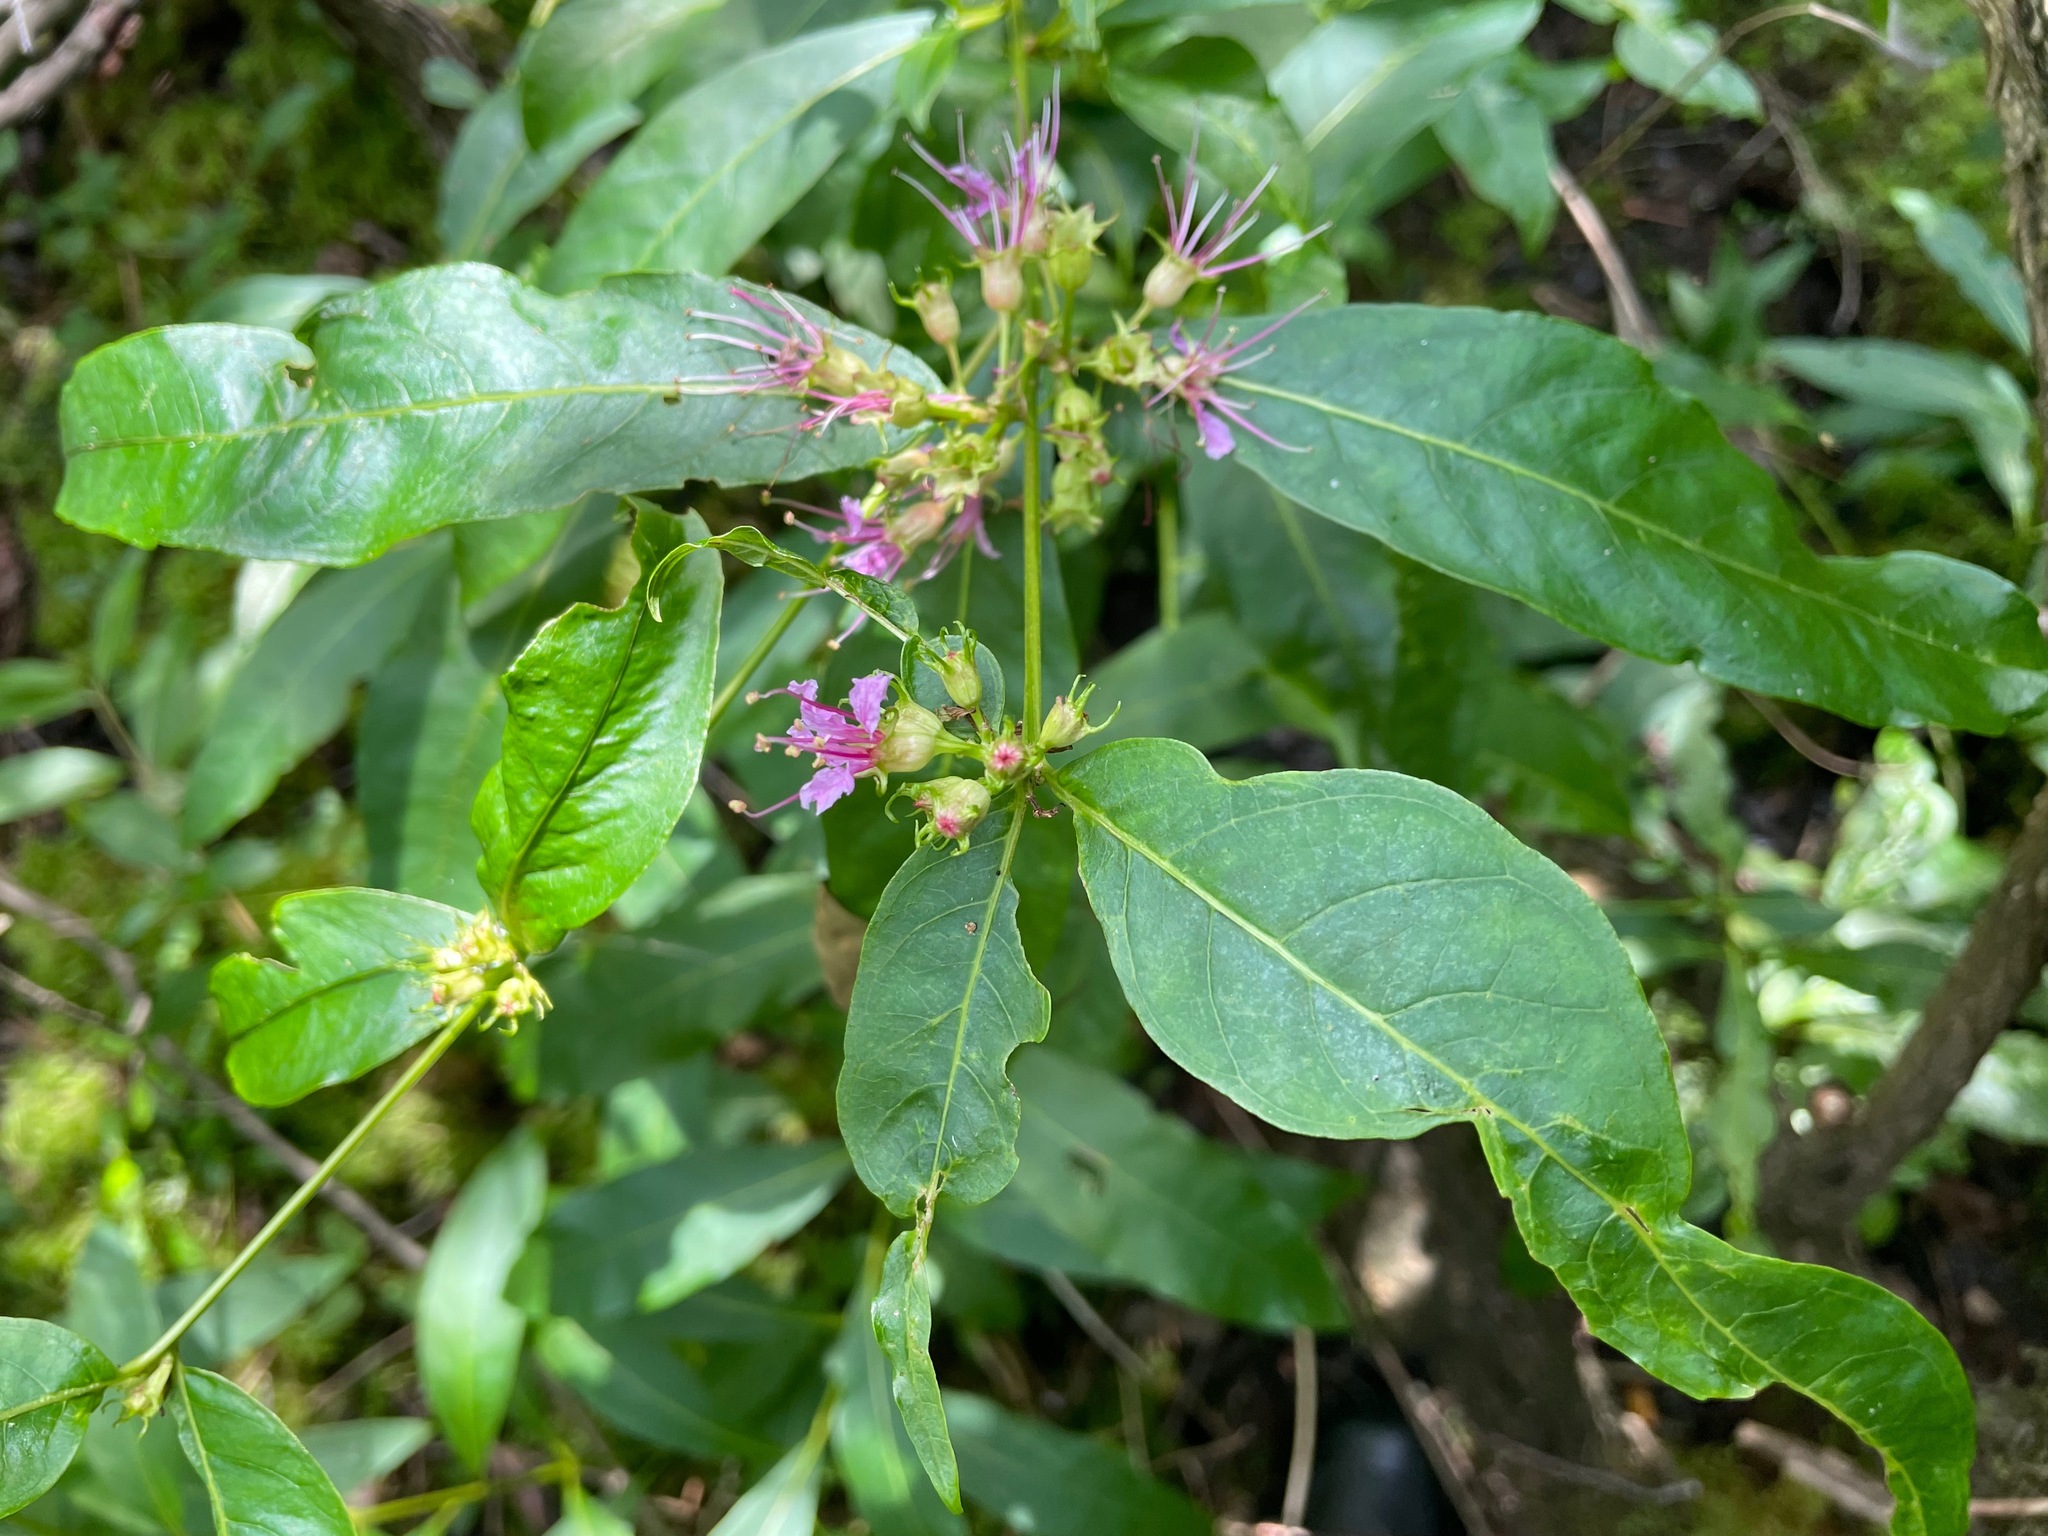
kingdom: Plantae
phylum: Tracheophyta
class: Magnoliopsida
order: Myrtales
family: Lythraceae
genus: Decodon
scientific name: Decodon verticillatus
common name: Hairy swamp loosestrife
